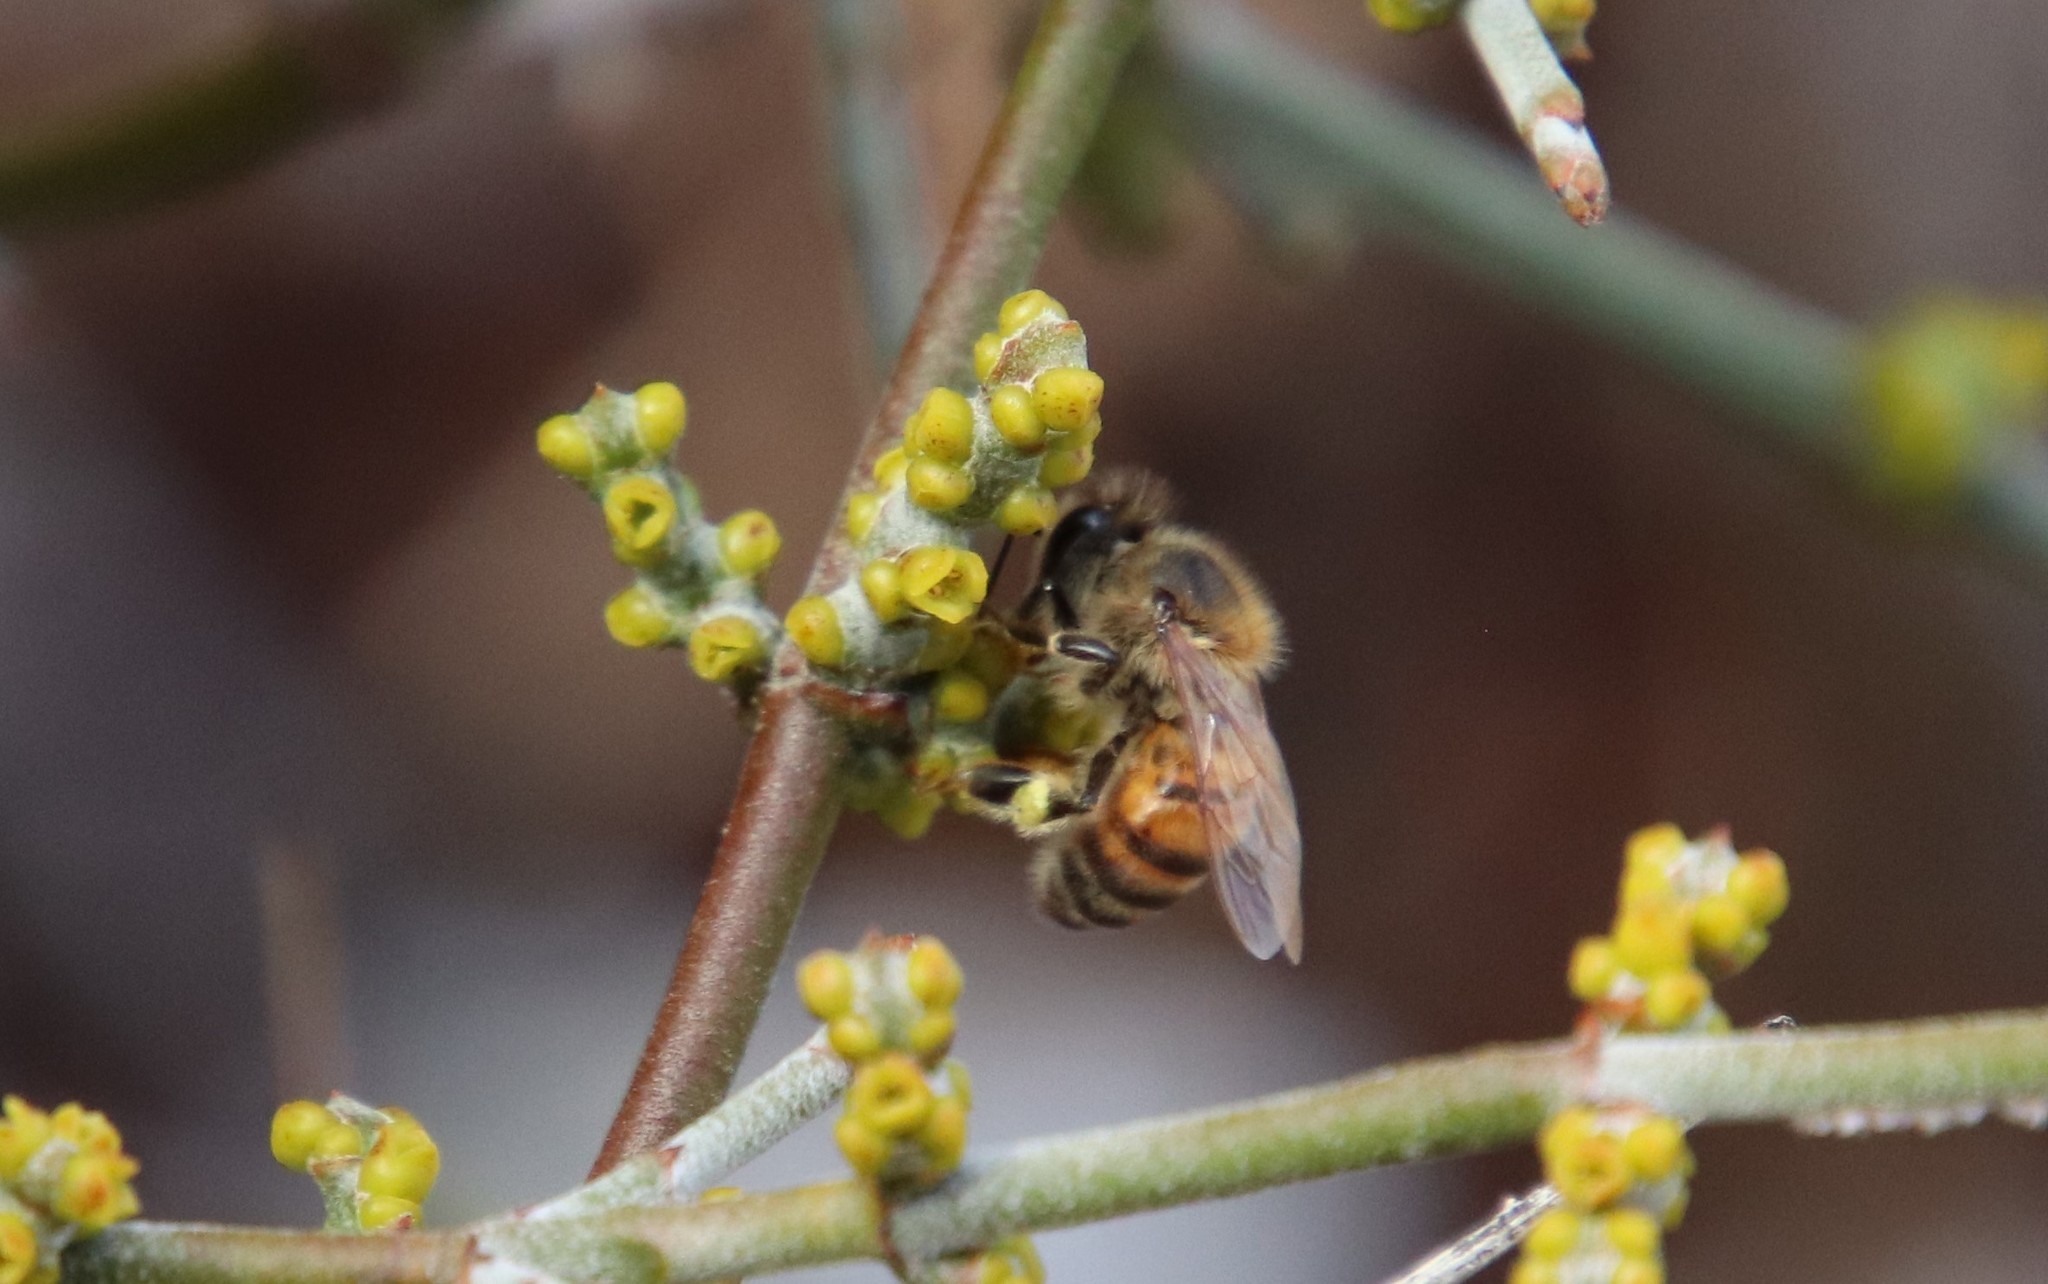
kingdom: Animalia
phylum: Arthropoda
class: Insecta
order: Hymenoptera
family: Apidae
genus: Apis
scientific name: Apis mellifera
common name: Honey bee
